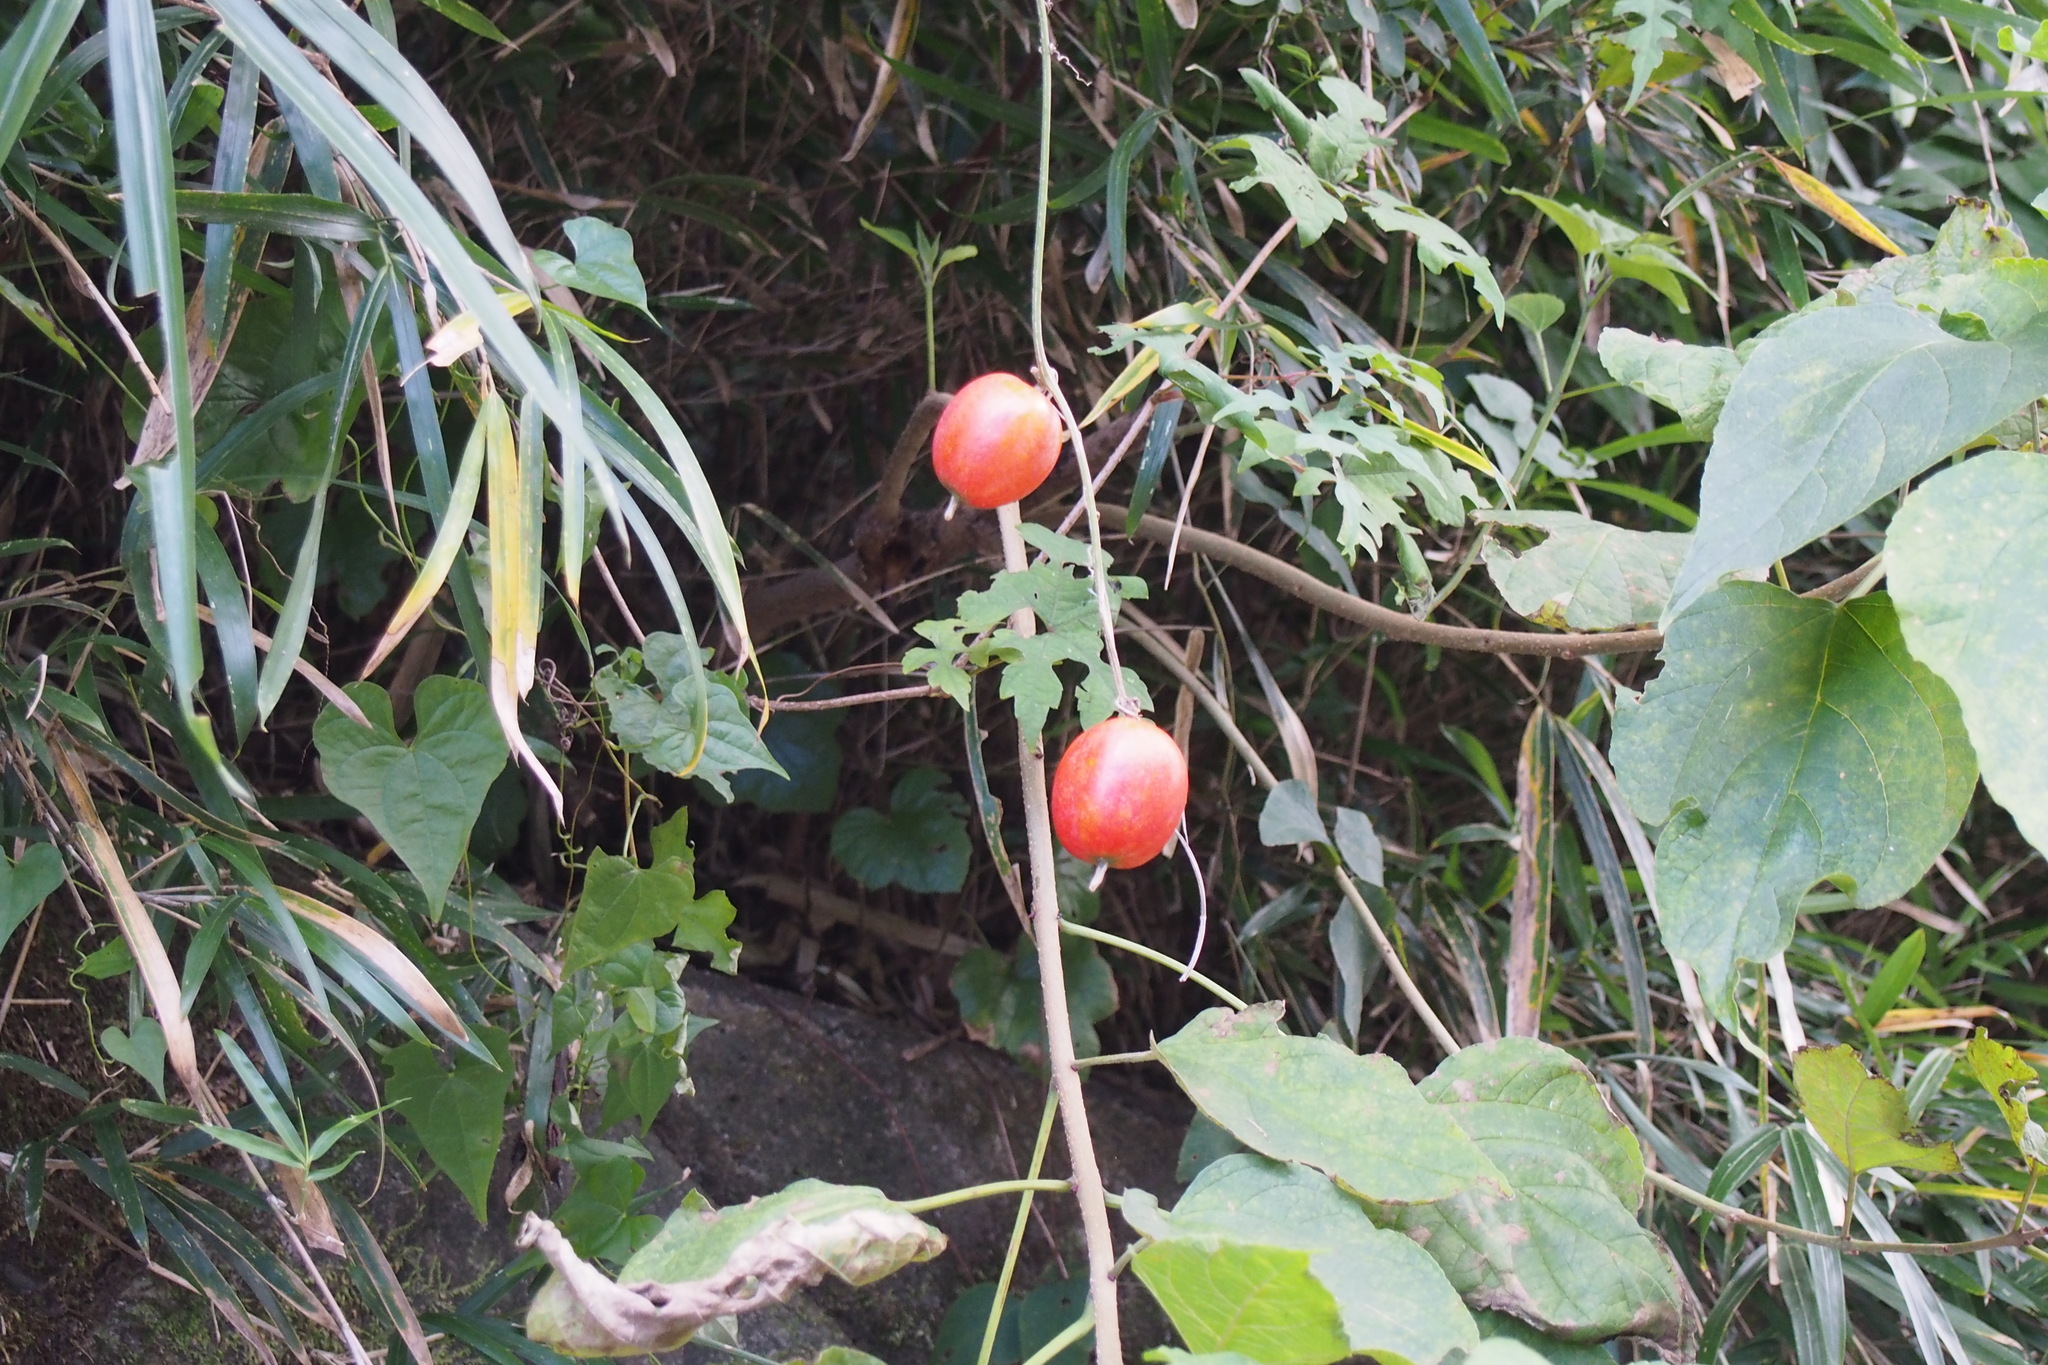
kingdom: Plantae
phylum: Tracheophyta
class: Magnoliopsida
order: Cucurbitales
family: Cucurbitaceae
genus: Trichosanthes
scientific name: Trichosanthes cucumeroides
